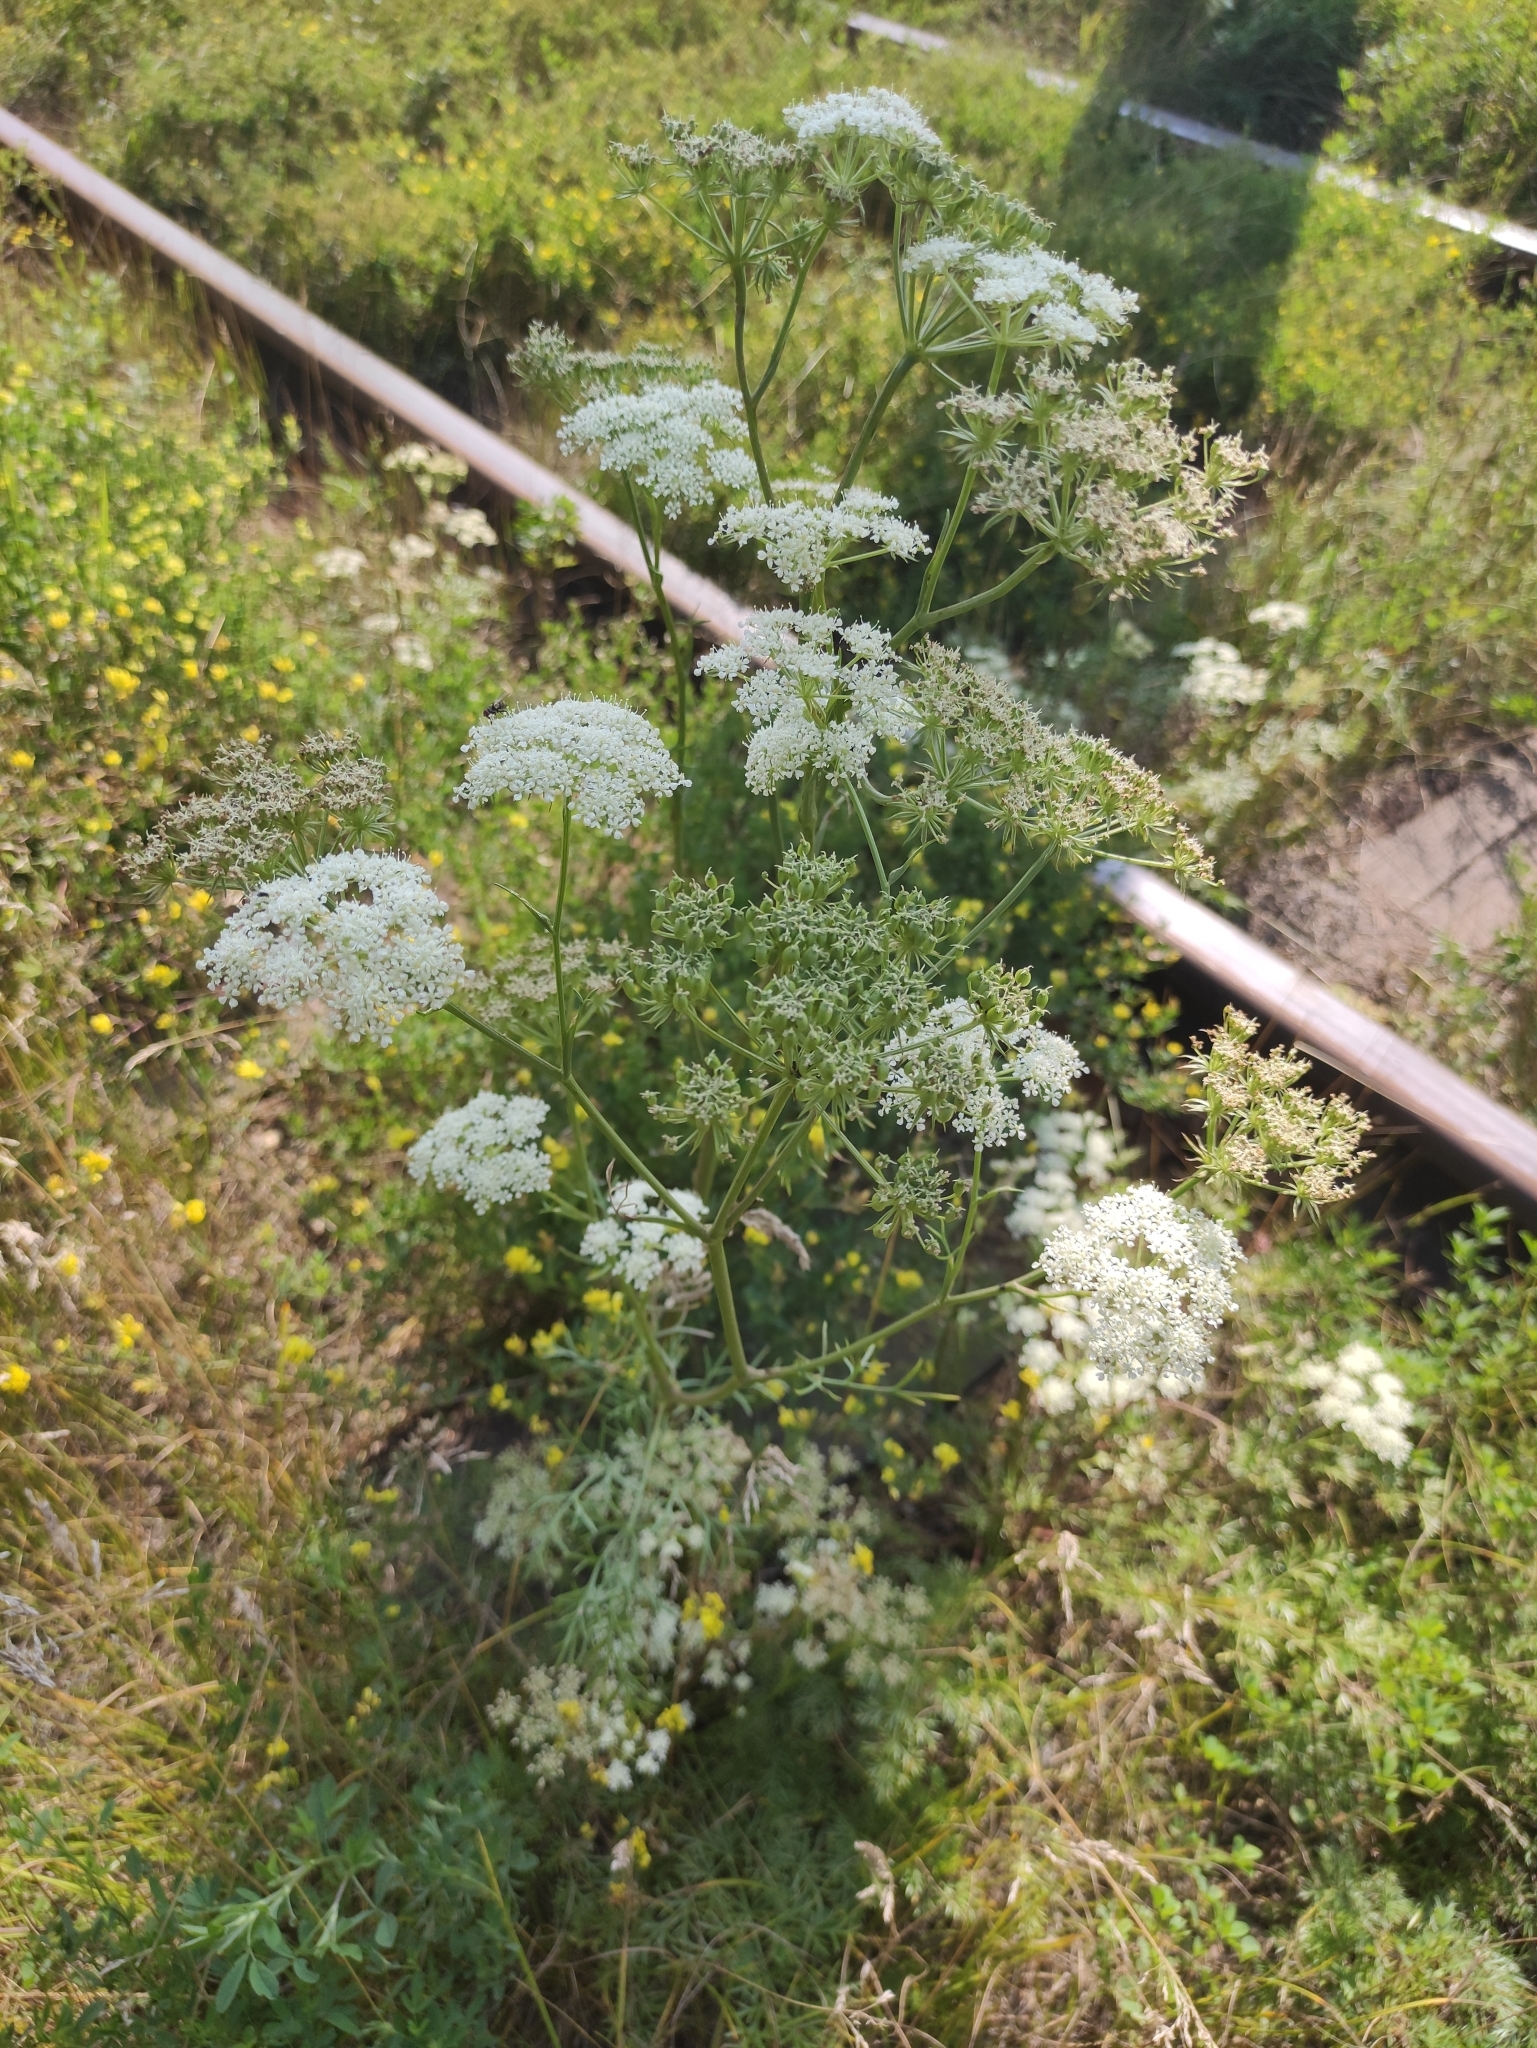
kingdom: Plantae
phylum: Tracheophyta
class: Magnoliopsida
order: Apiales
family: Apiaceae
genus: Kitagawia
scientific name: Kitagawia baicalensis
